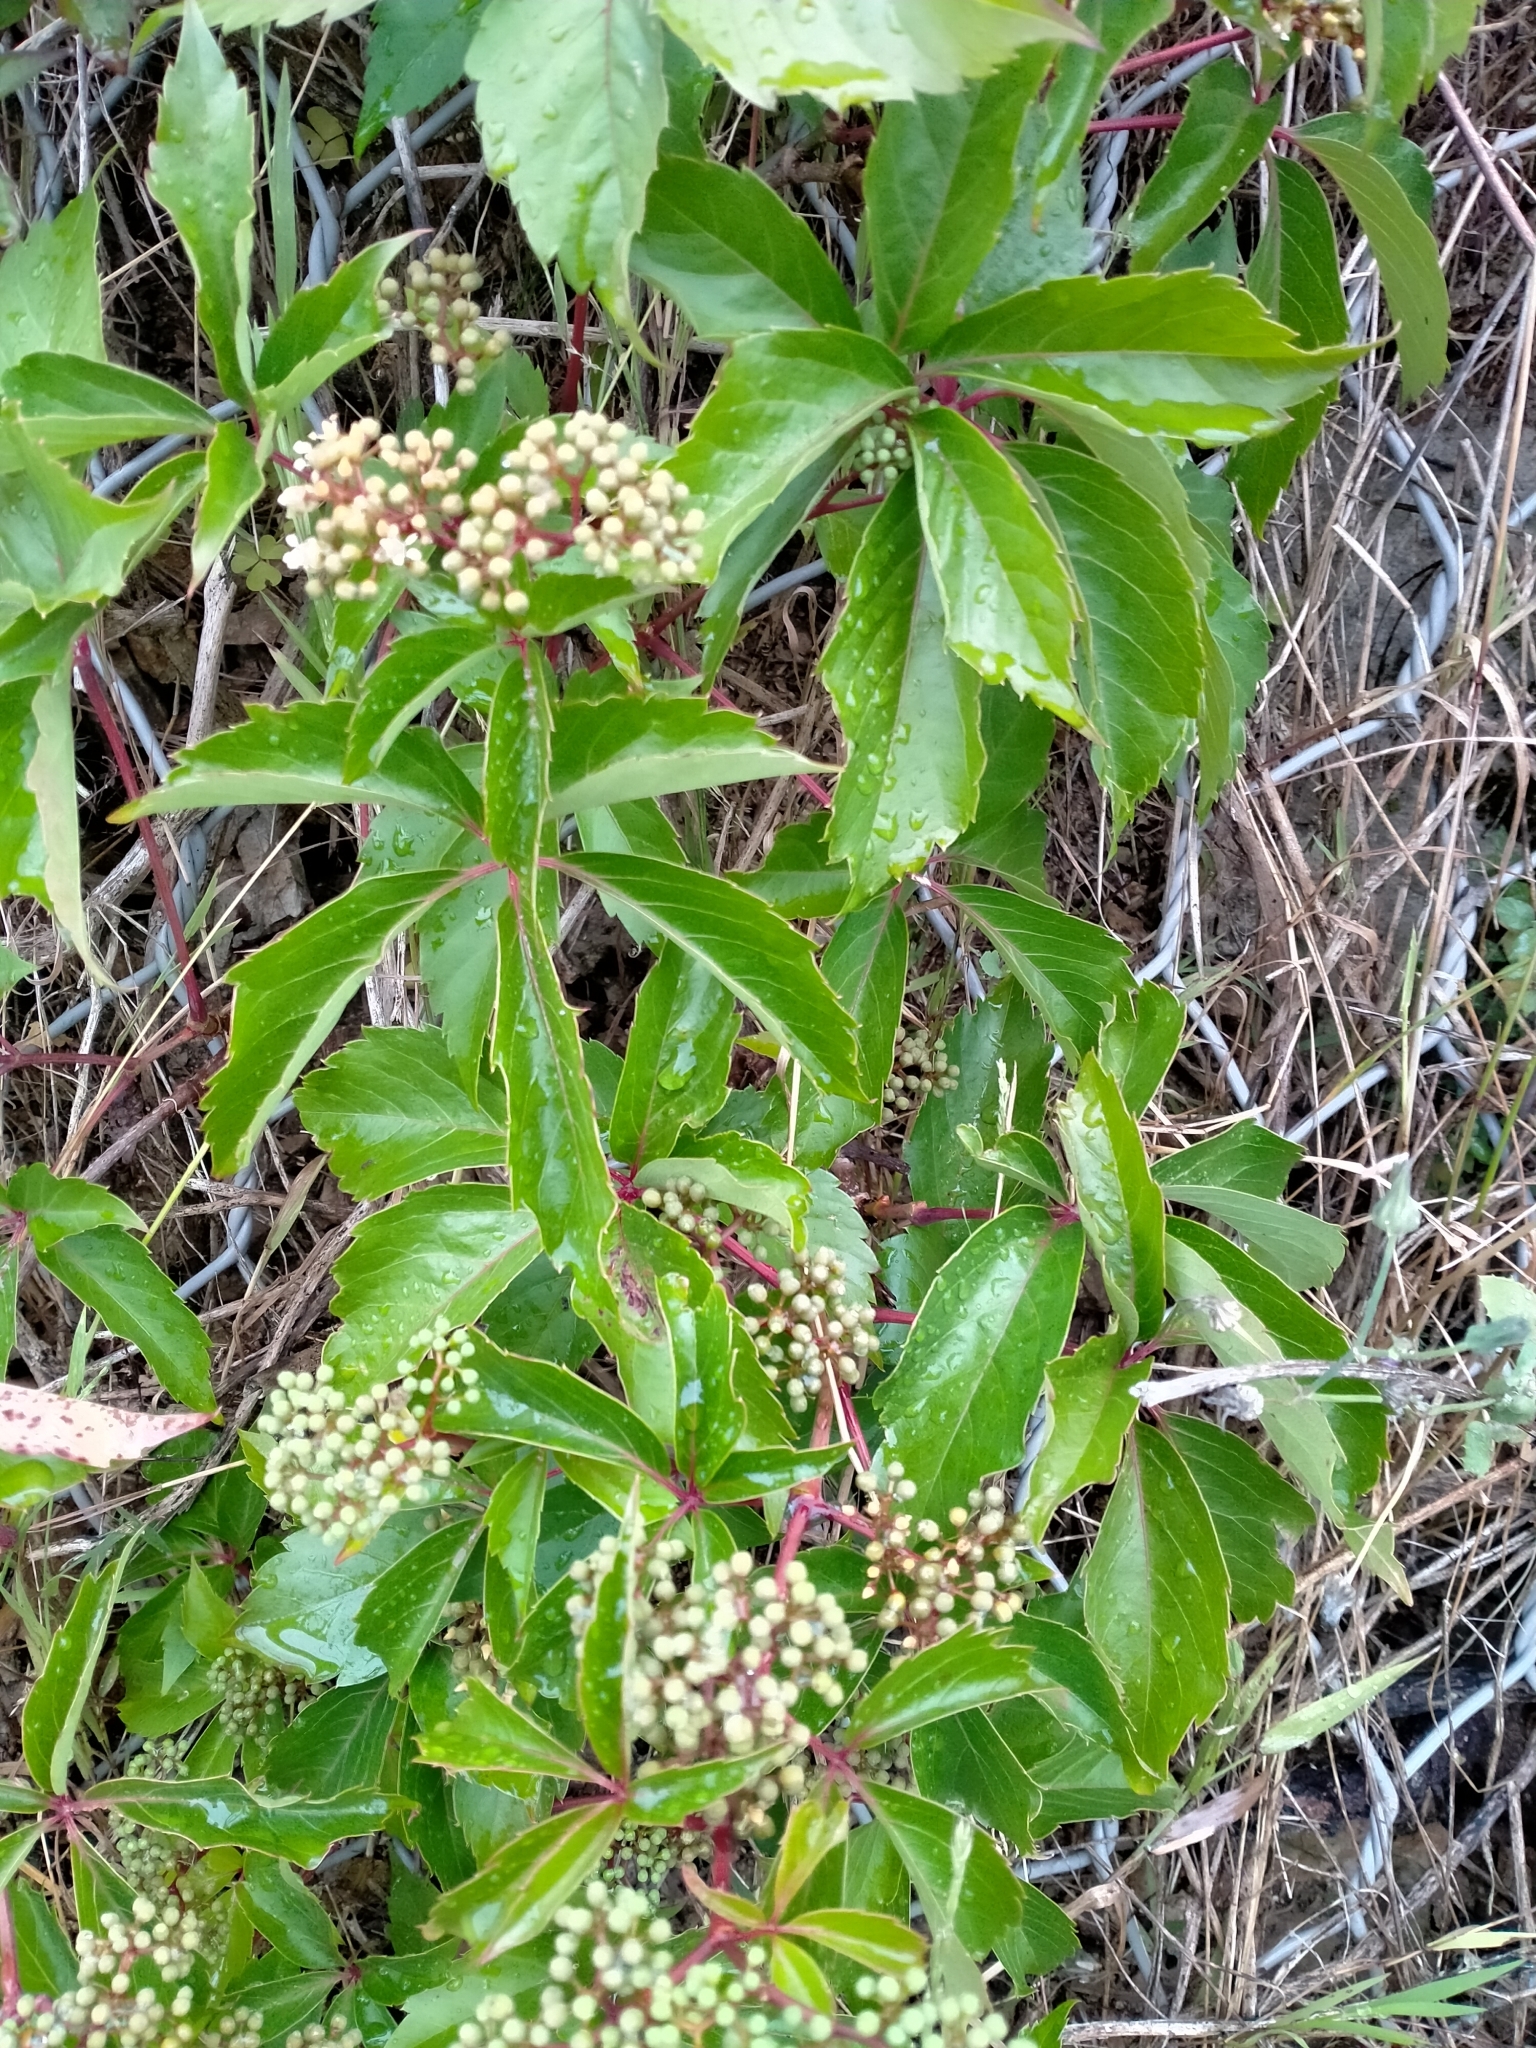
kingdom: Plantae
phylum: Tracheophyta
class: Magnoliopsida
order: Vitales
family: Vitaceae
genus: Parthenocissus
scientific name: Parthenocissus quinquefolia
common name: Virginia-creeper
